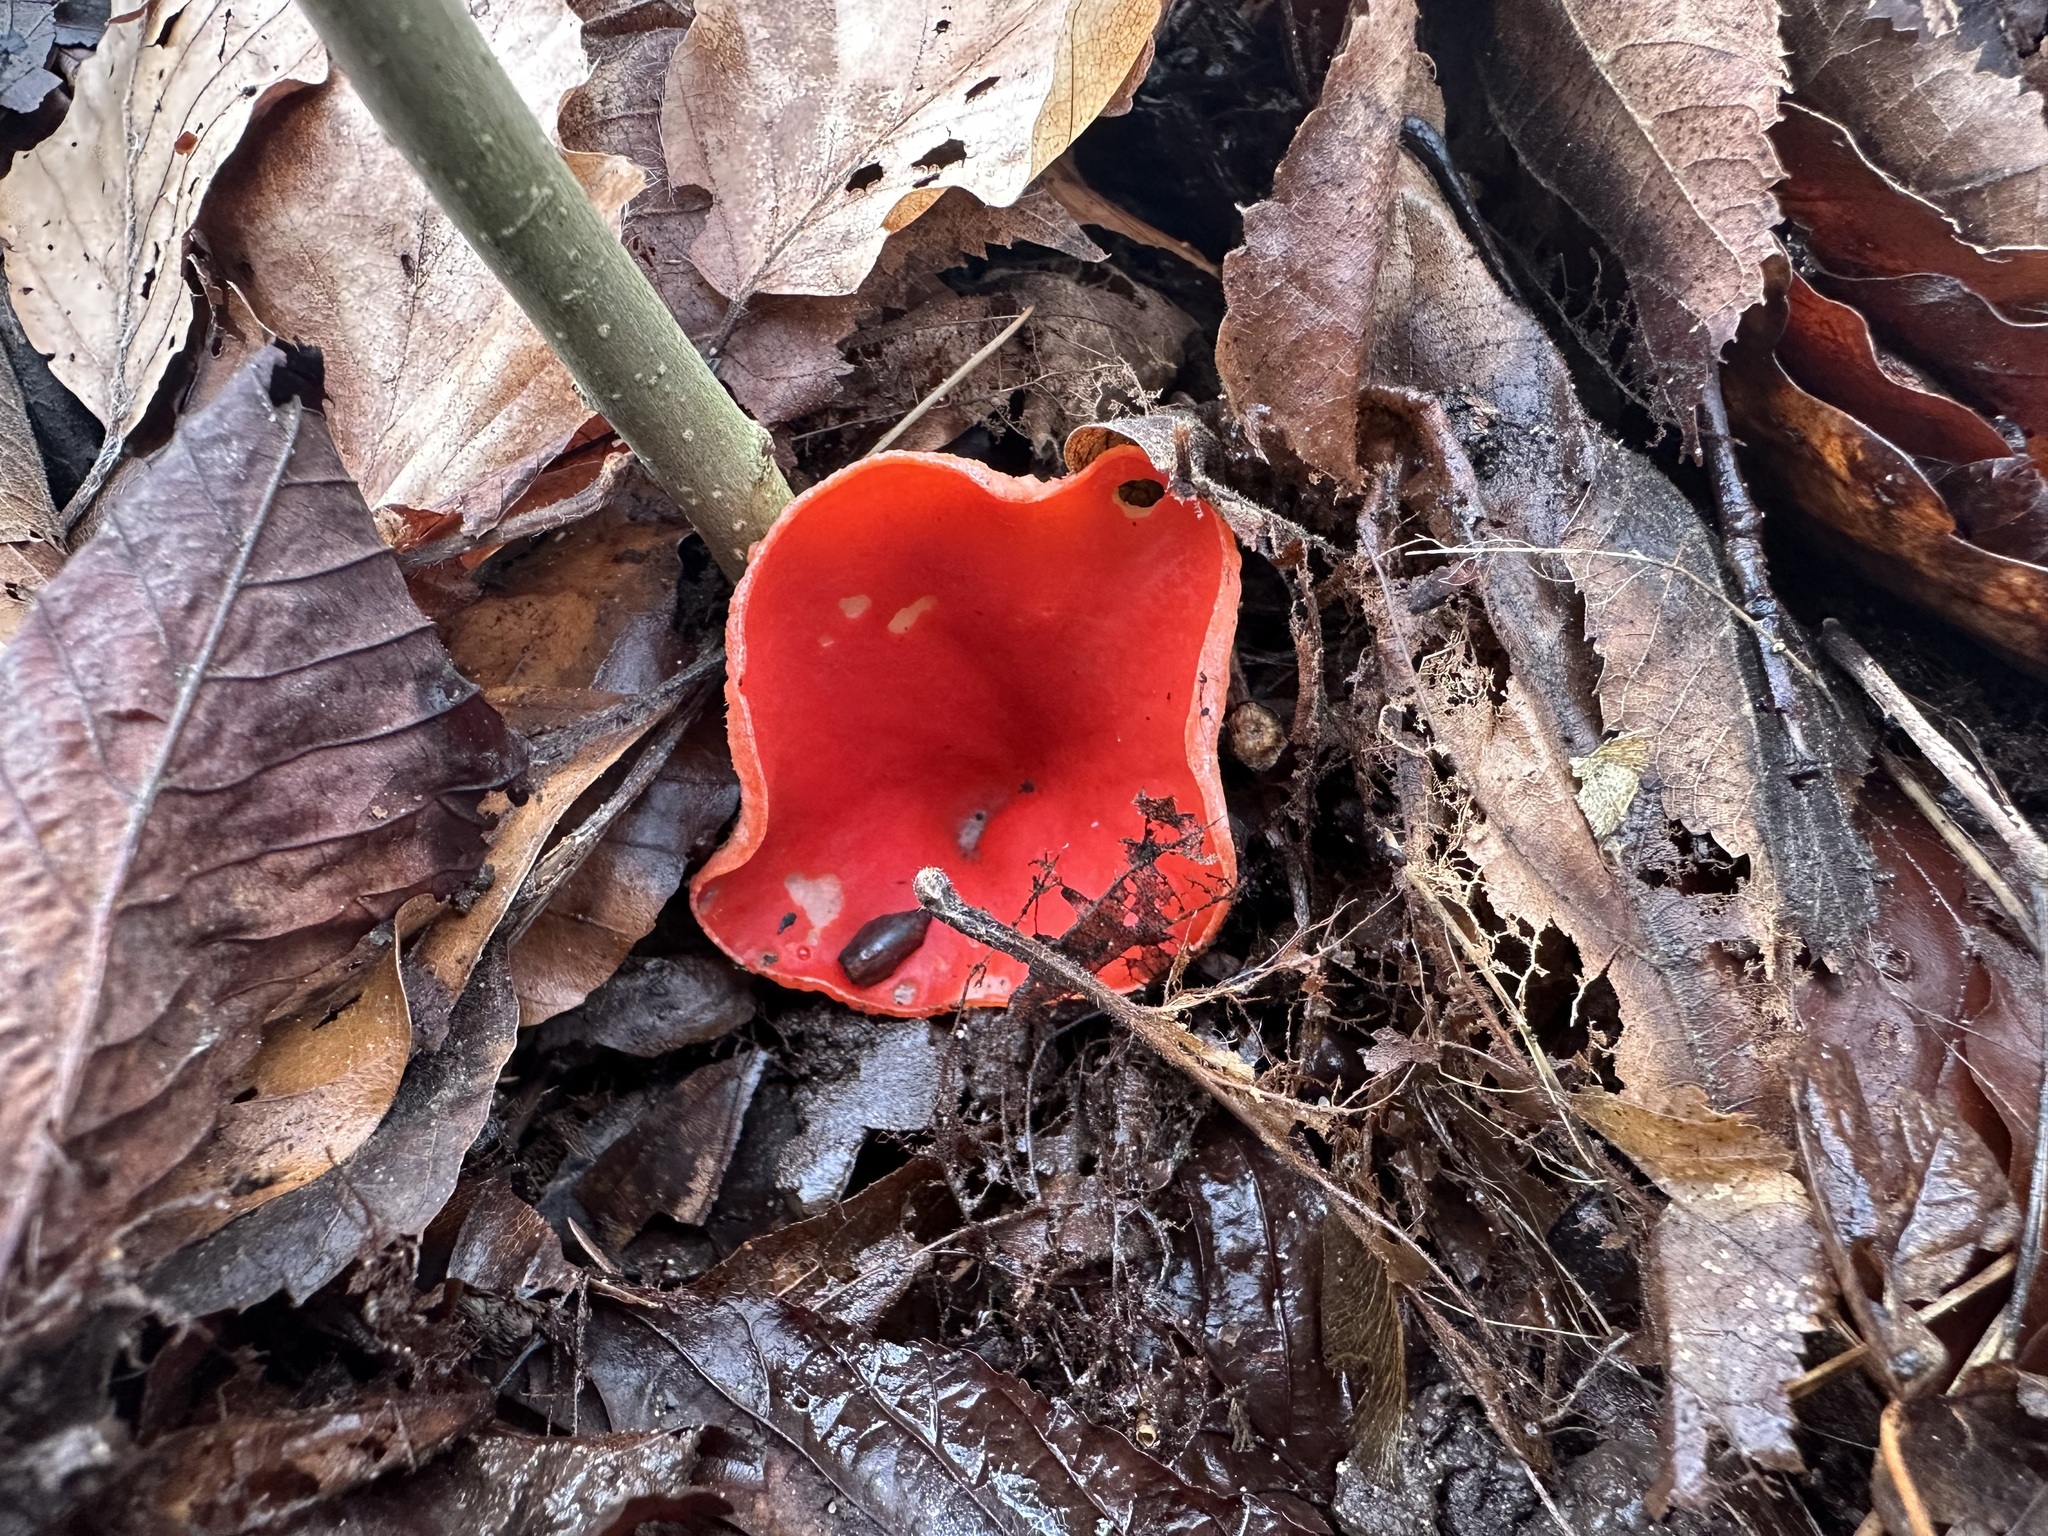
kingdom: Fungi
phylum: Ascomycota
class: Pezizomycetes
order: Pezizales
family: Sarcoscyphaceae
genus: Sarcoscypha
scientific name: Sarcoscypha jurana
